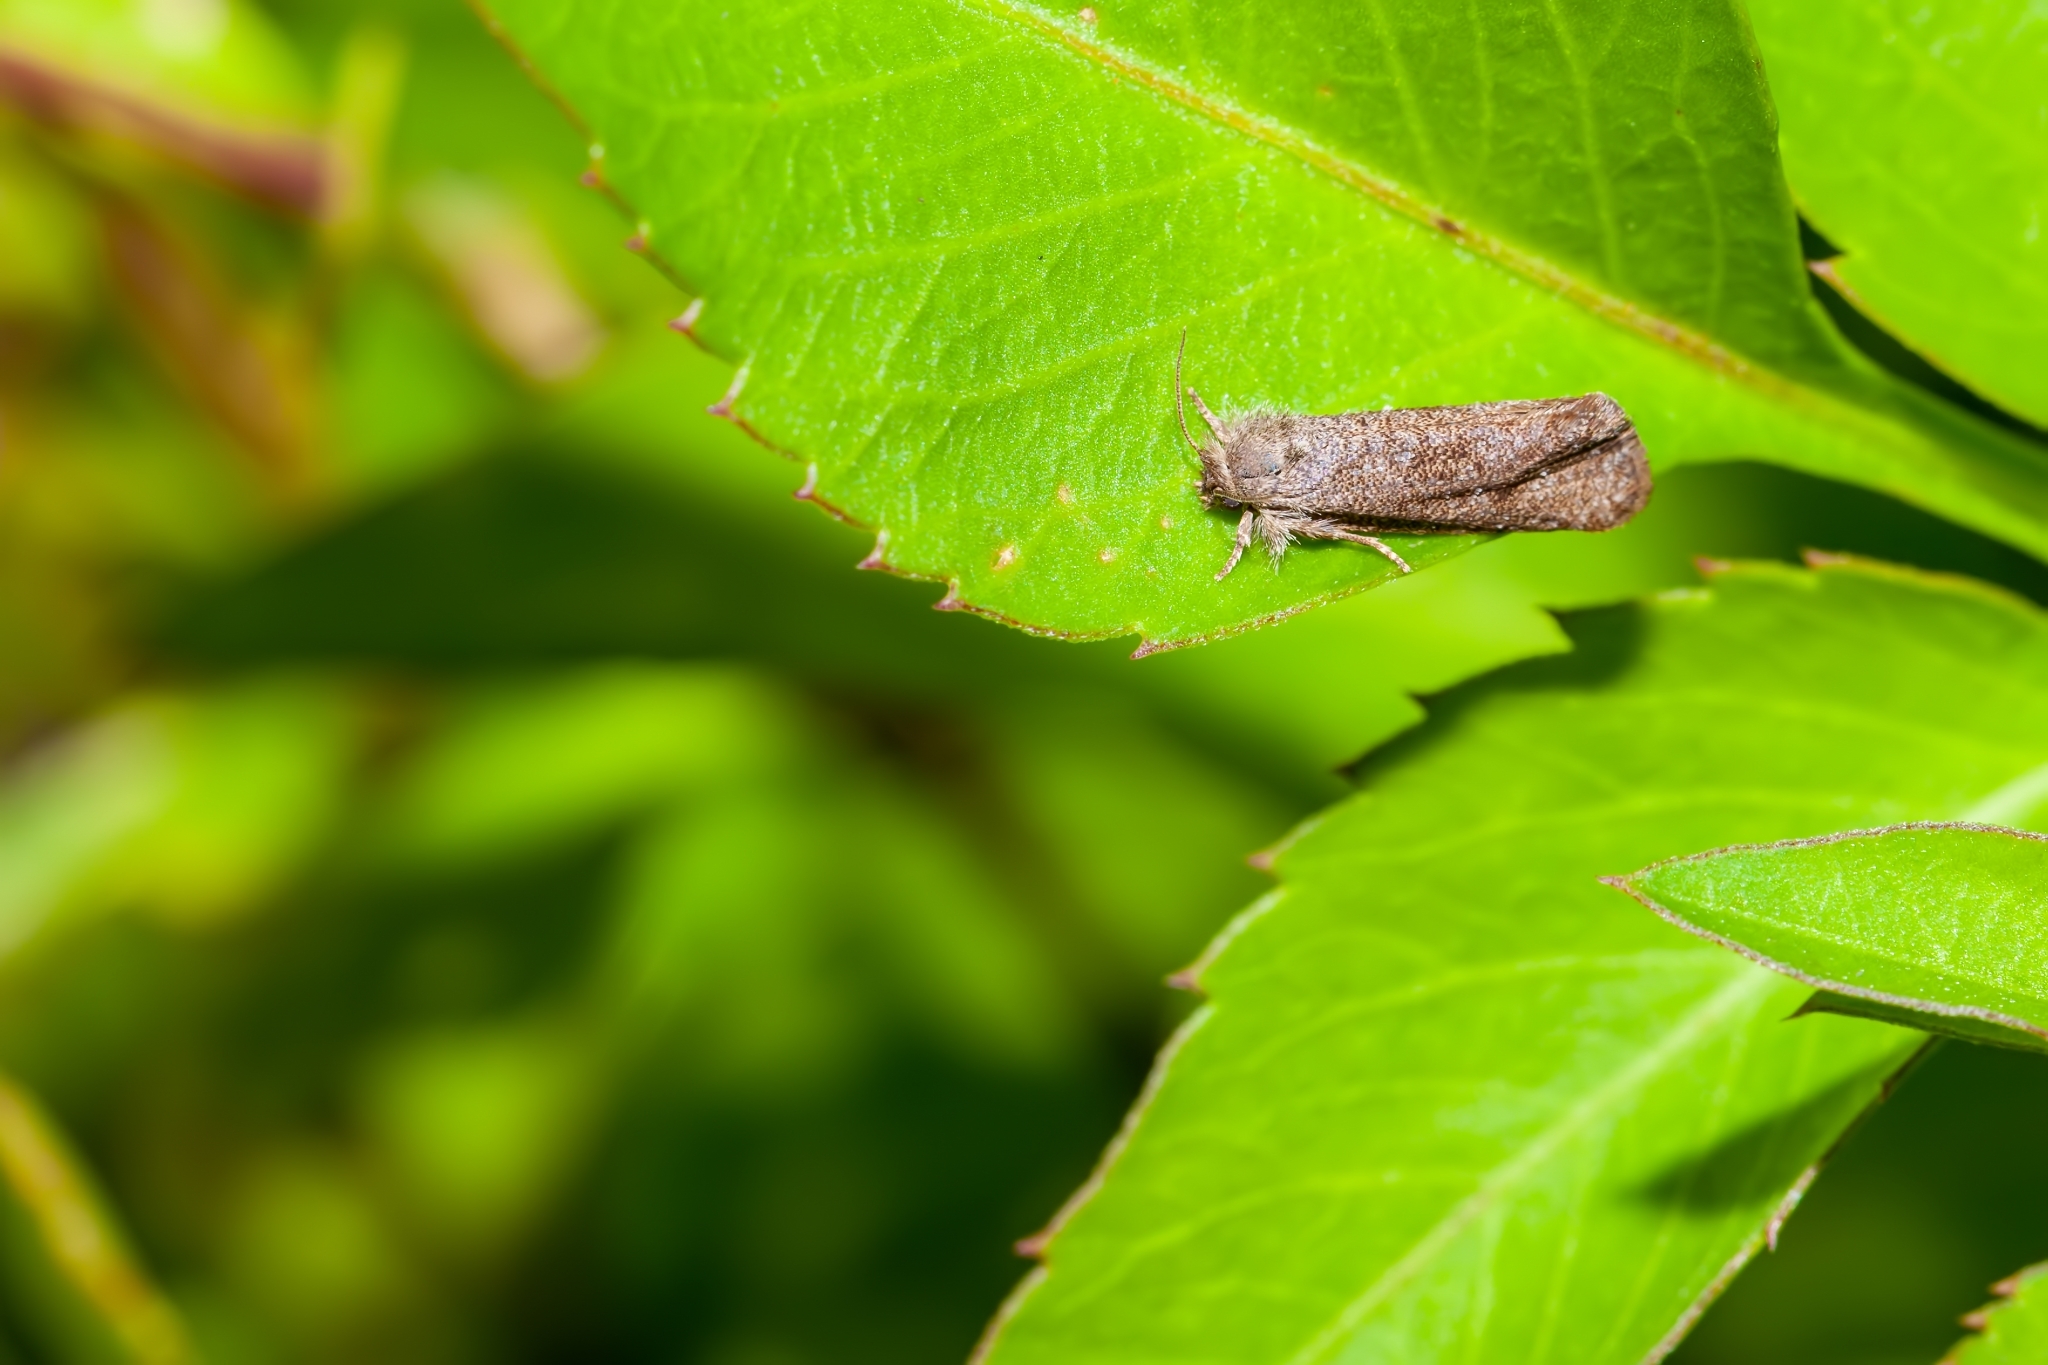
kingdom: Animalia
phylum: Arthropoda
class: Insecta
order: Lepidoptera
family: Tineidae
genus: Acrolophus
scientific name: Acrolophus heppneri
